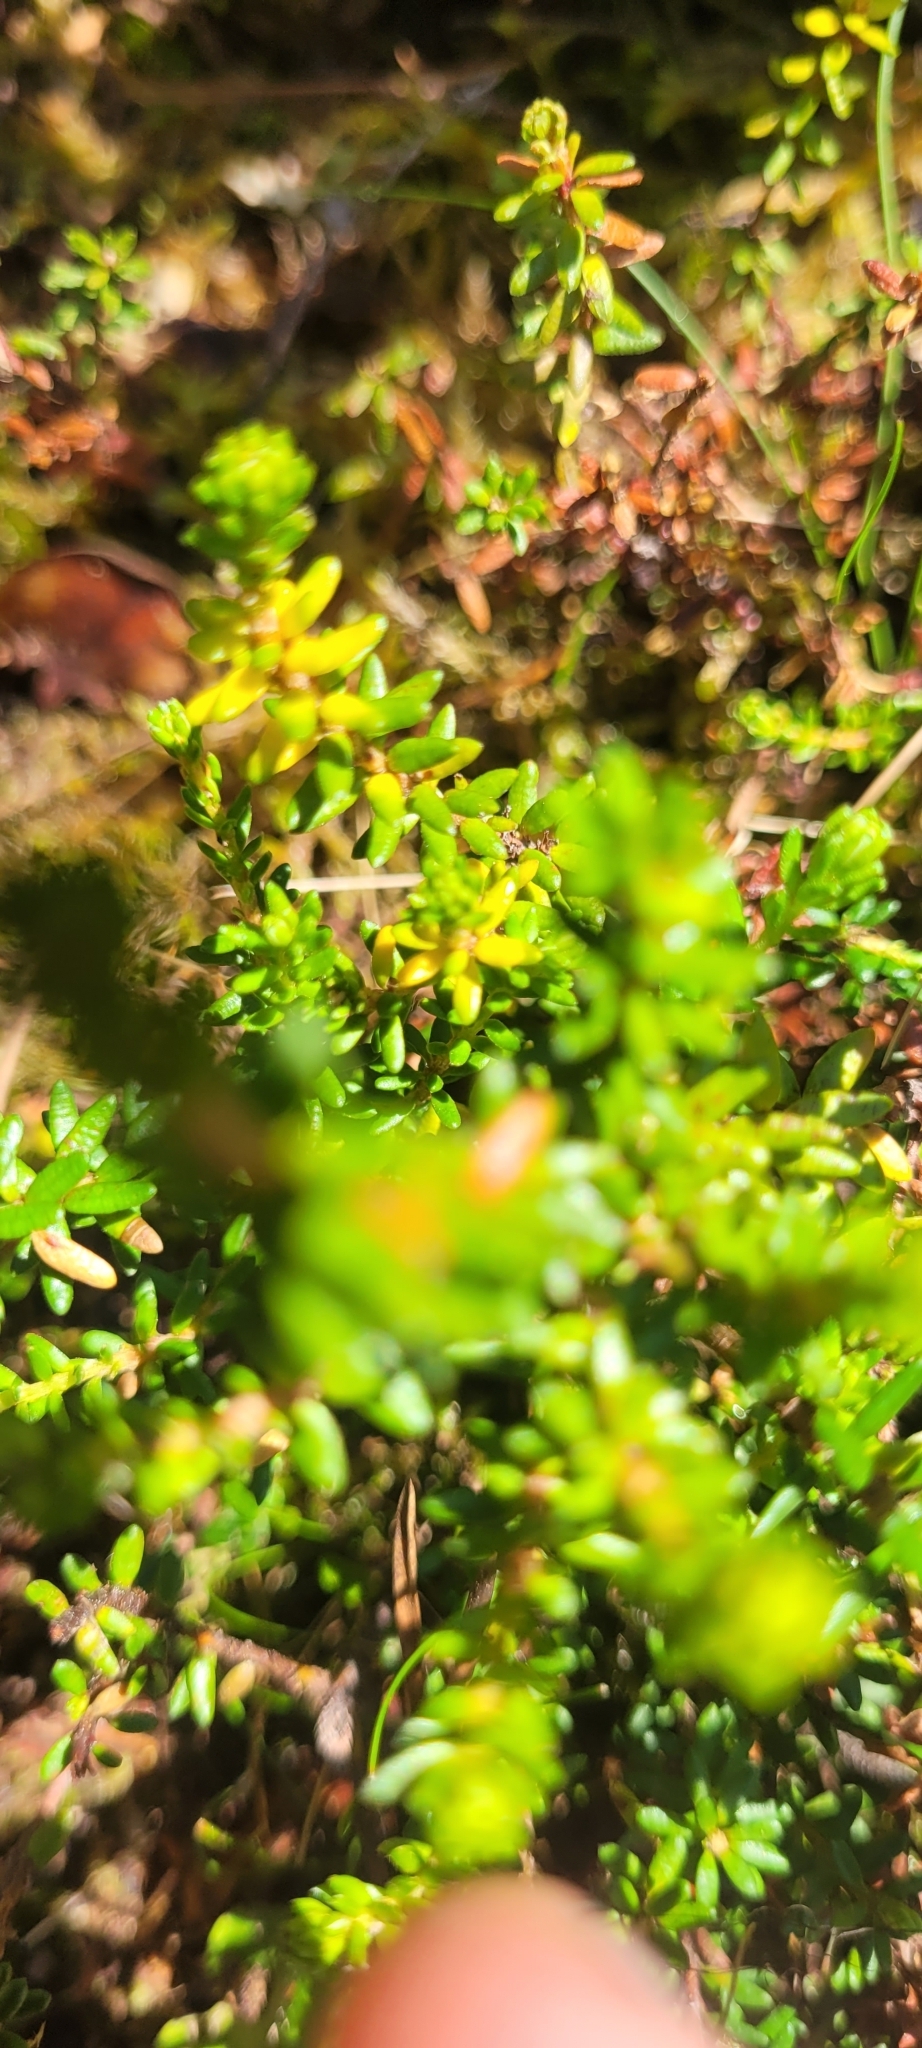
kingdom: Plantae
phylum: Tracheophyta
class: Magnoliopsida
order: Ericales
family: Ericaceae
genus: Empetrum
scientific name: Empetrum nigrum
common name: Black crowberry
